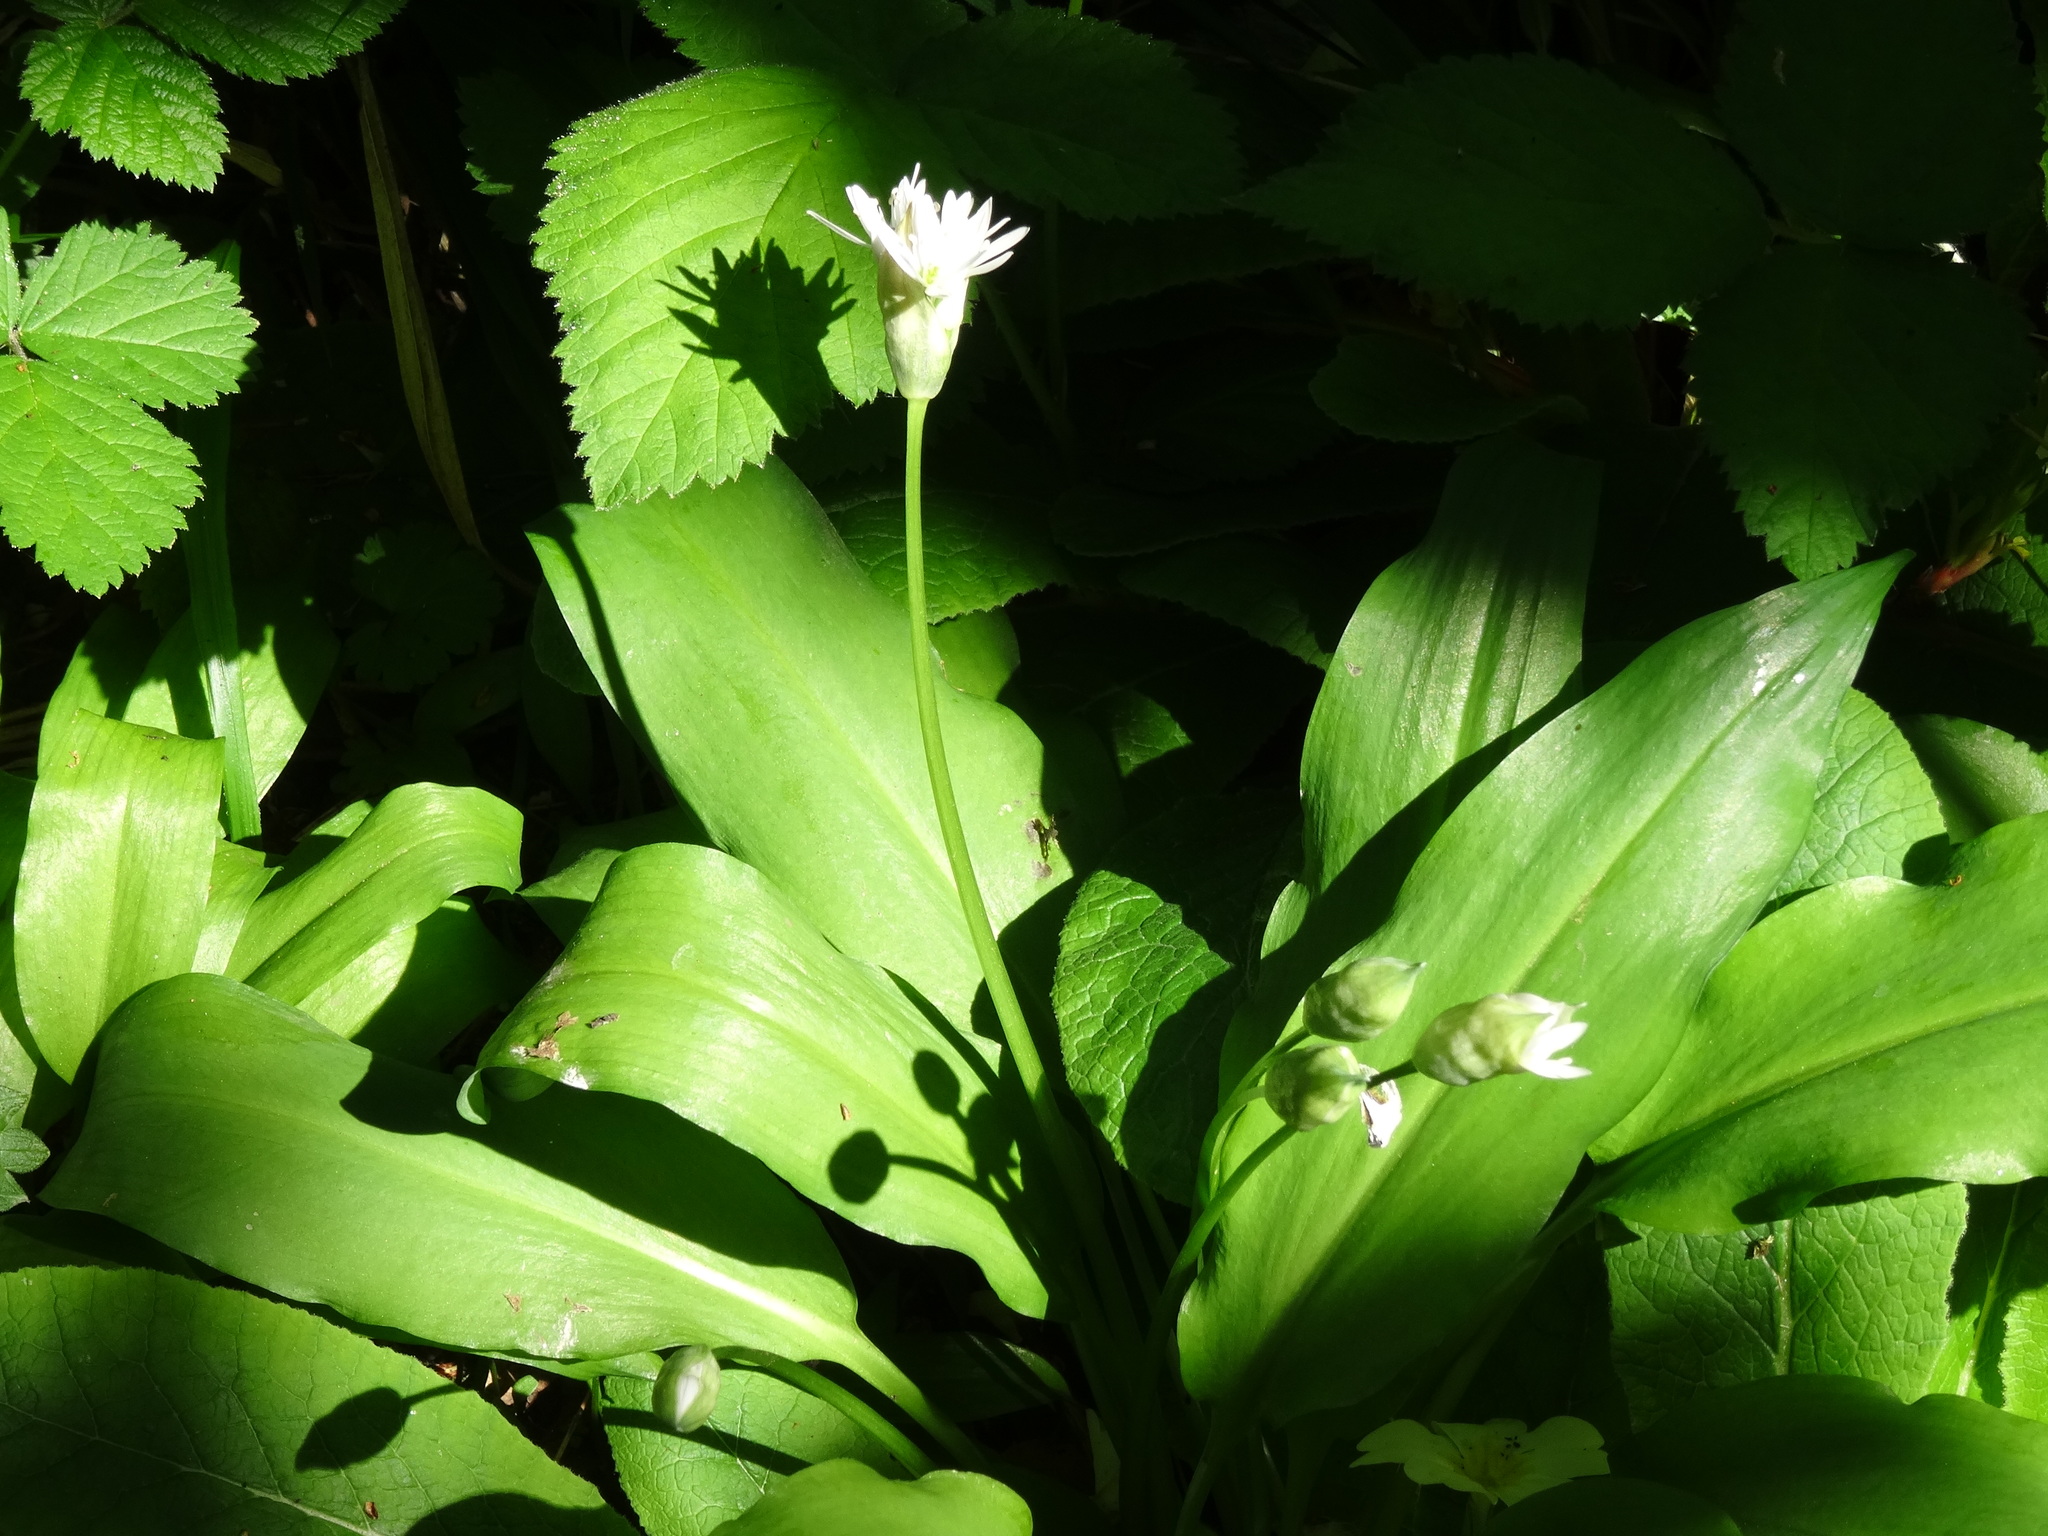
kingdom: Plantae
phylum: Tracheophyta
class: Liliopsida
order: Asparagales
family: Amaryllidaceae
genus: Allium
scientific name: Allium ursinum
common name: Ramsons
